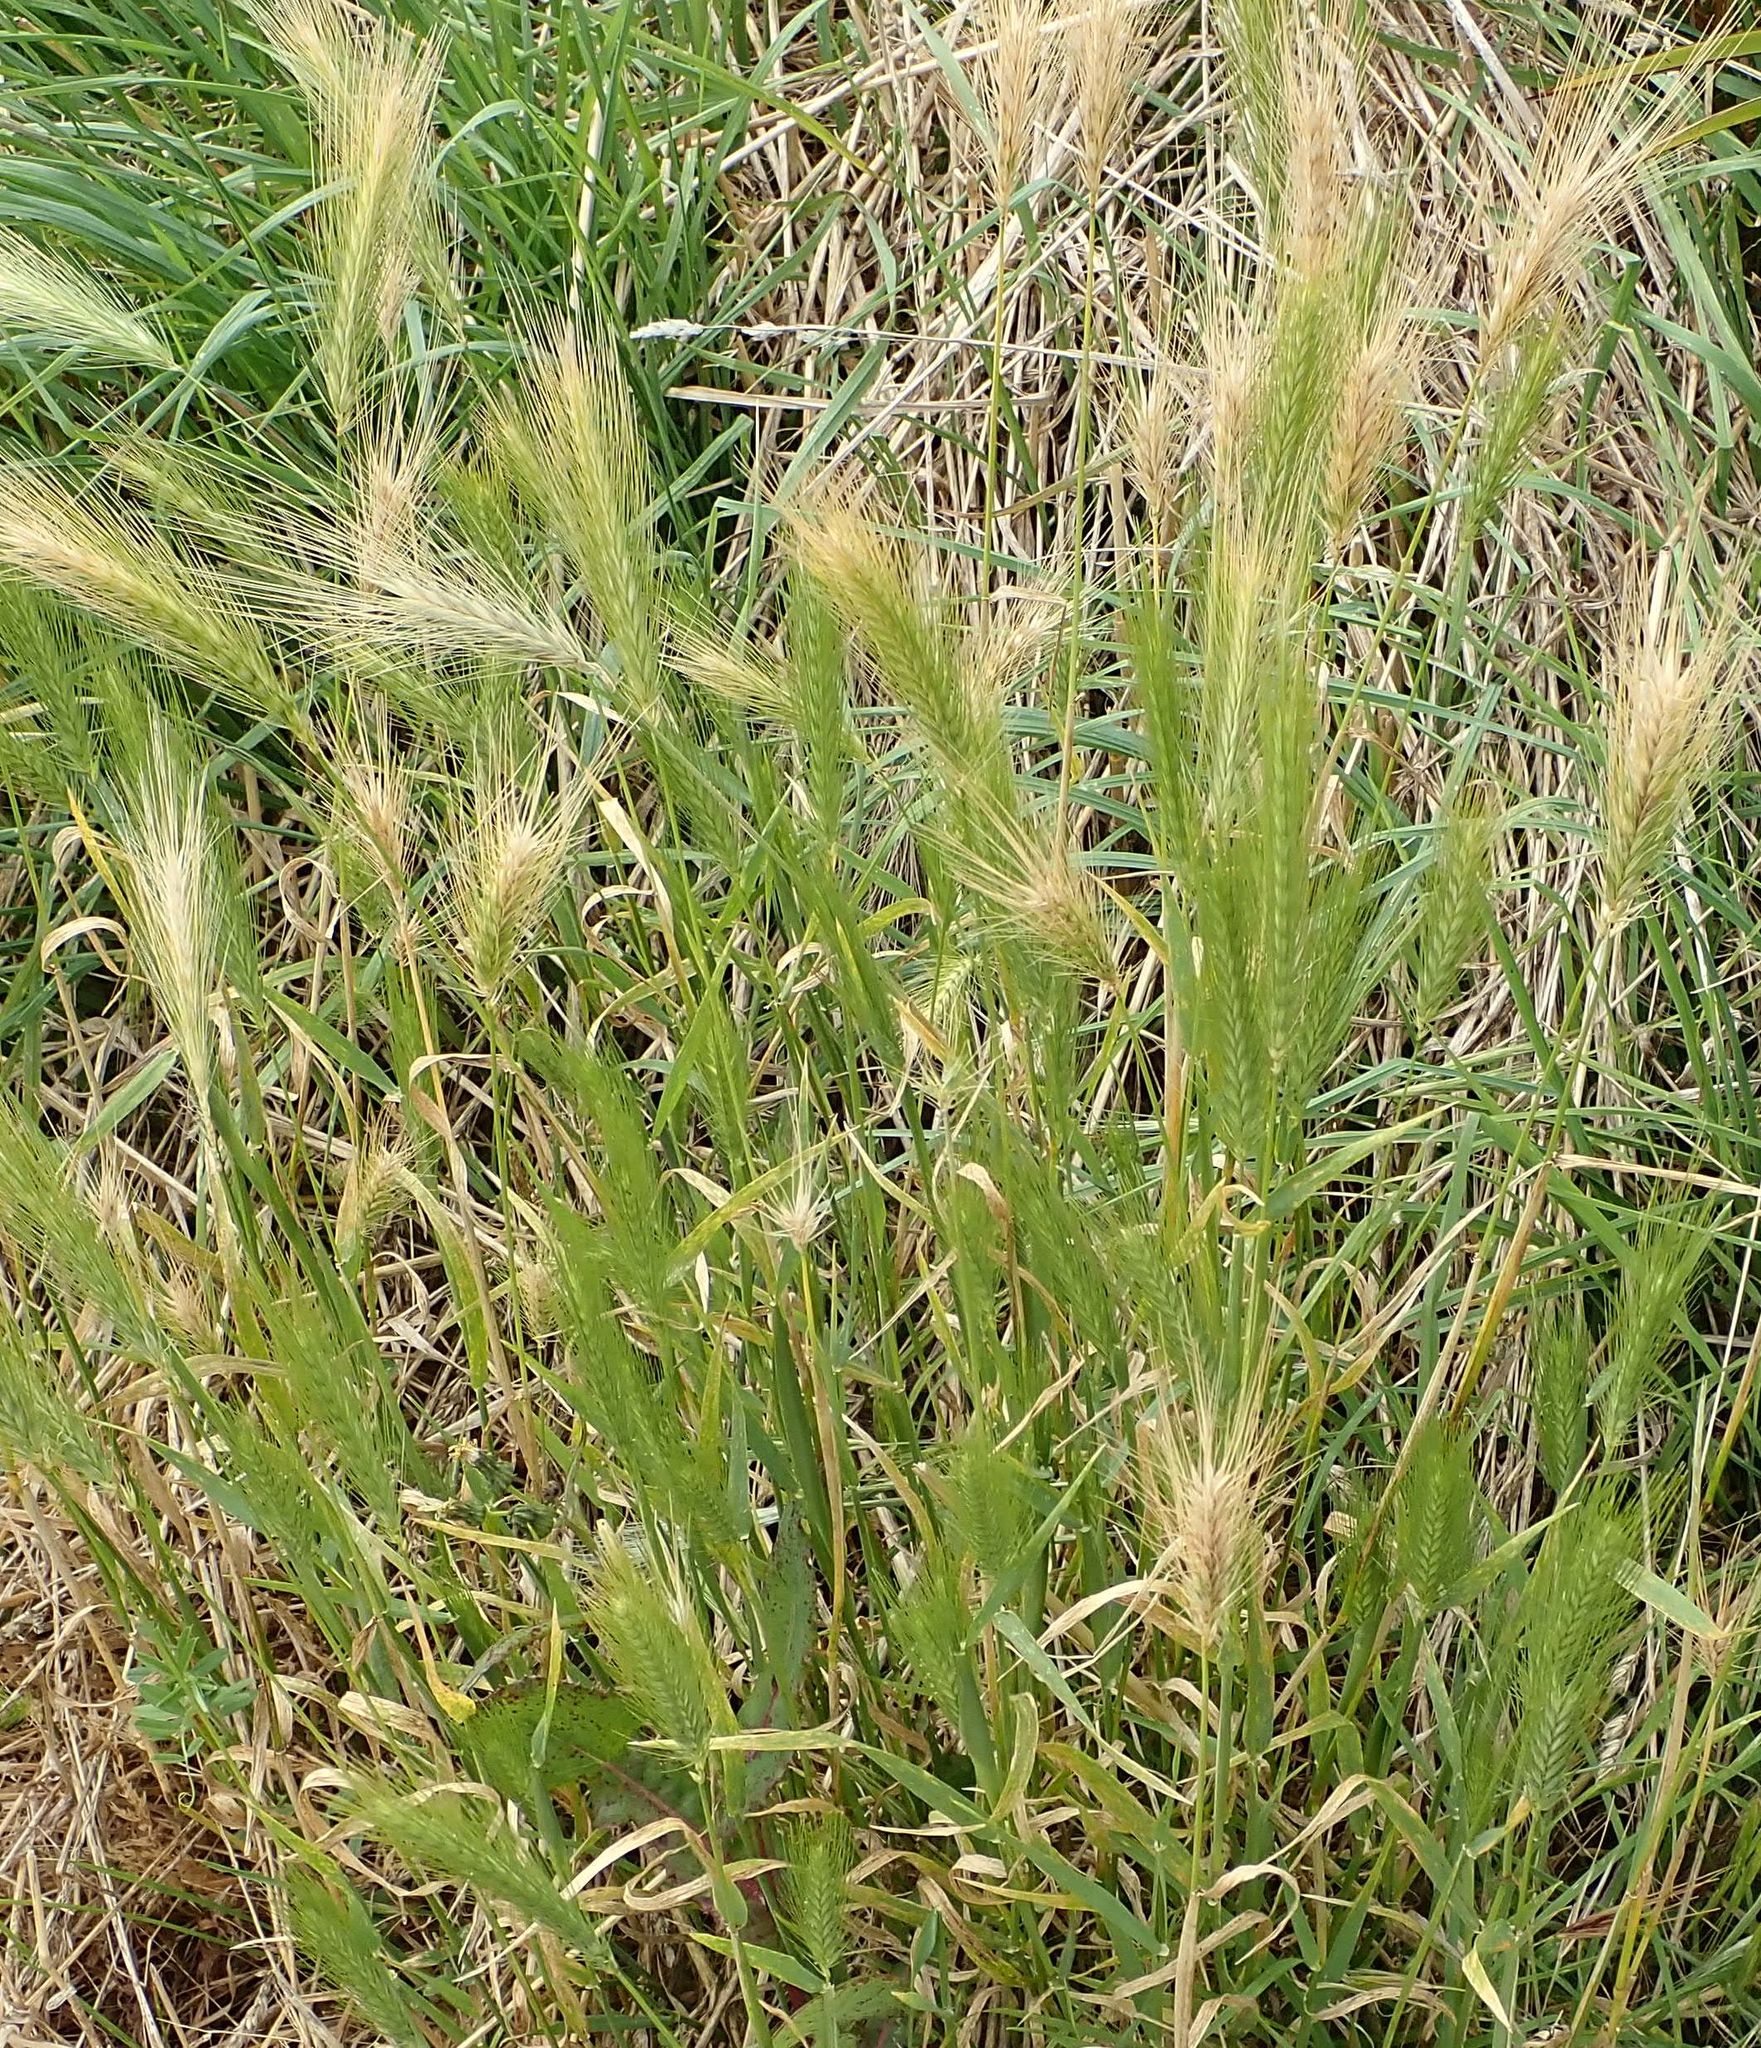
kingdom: Plantae
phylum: Tracheophyta
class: Liliopsida
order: Poales
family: Poaceae
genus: Hordeum
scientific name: Hordeum murinum
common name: Wall barley
